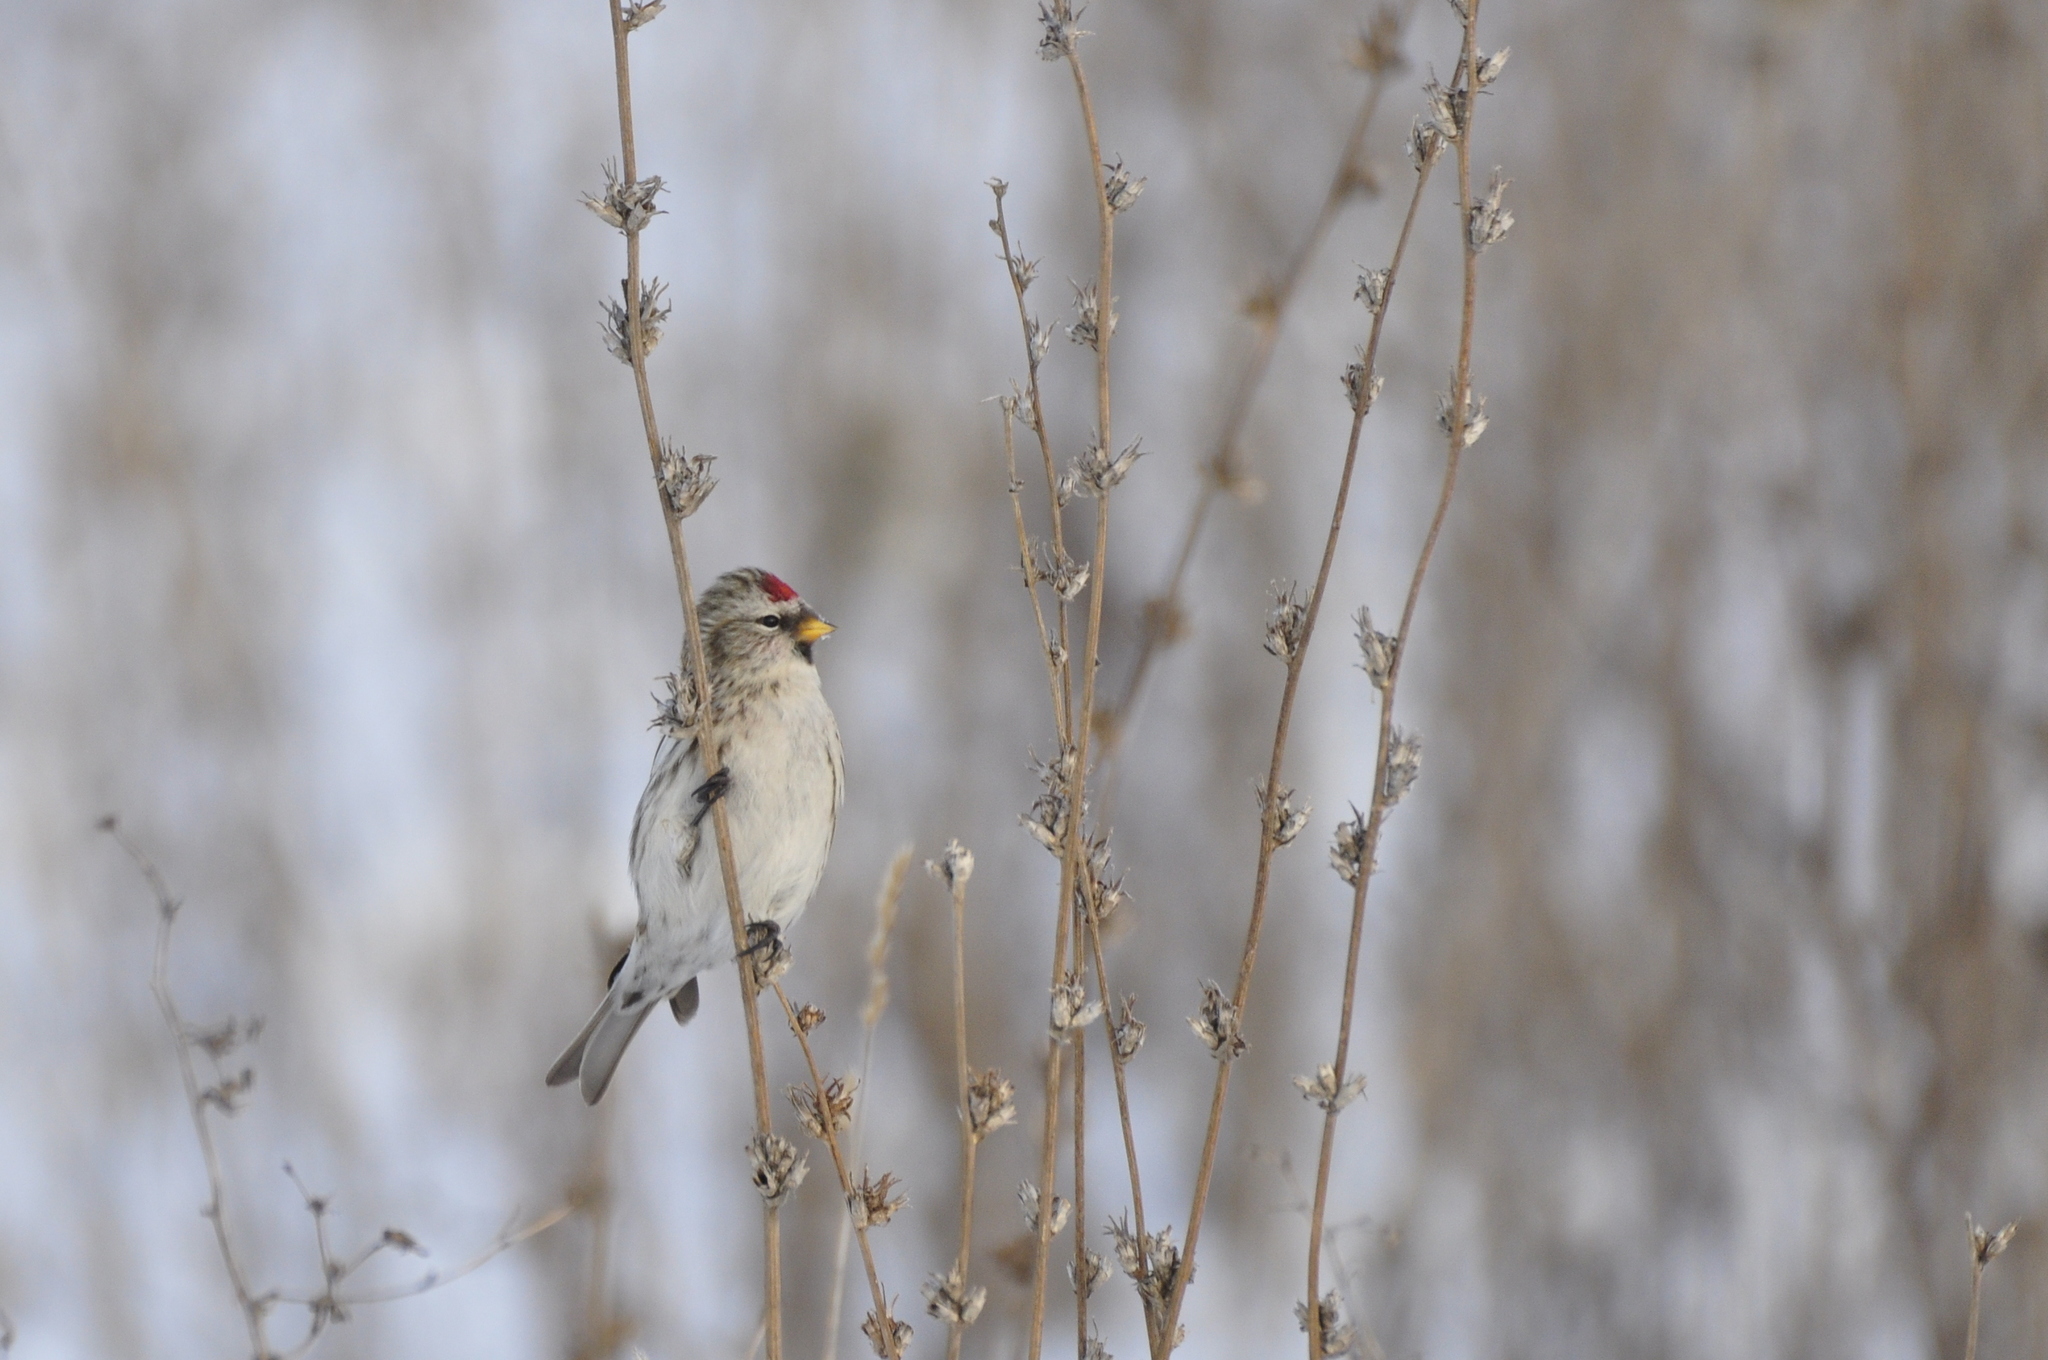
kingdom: Animalia
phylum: Chordata
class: Aves
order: Passeriformes
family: Fringillidae
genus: Acanthis
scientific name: Acanthis flammea
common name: Common redpoll
